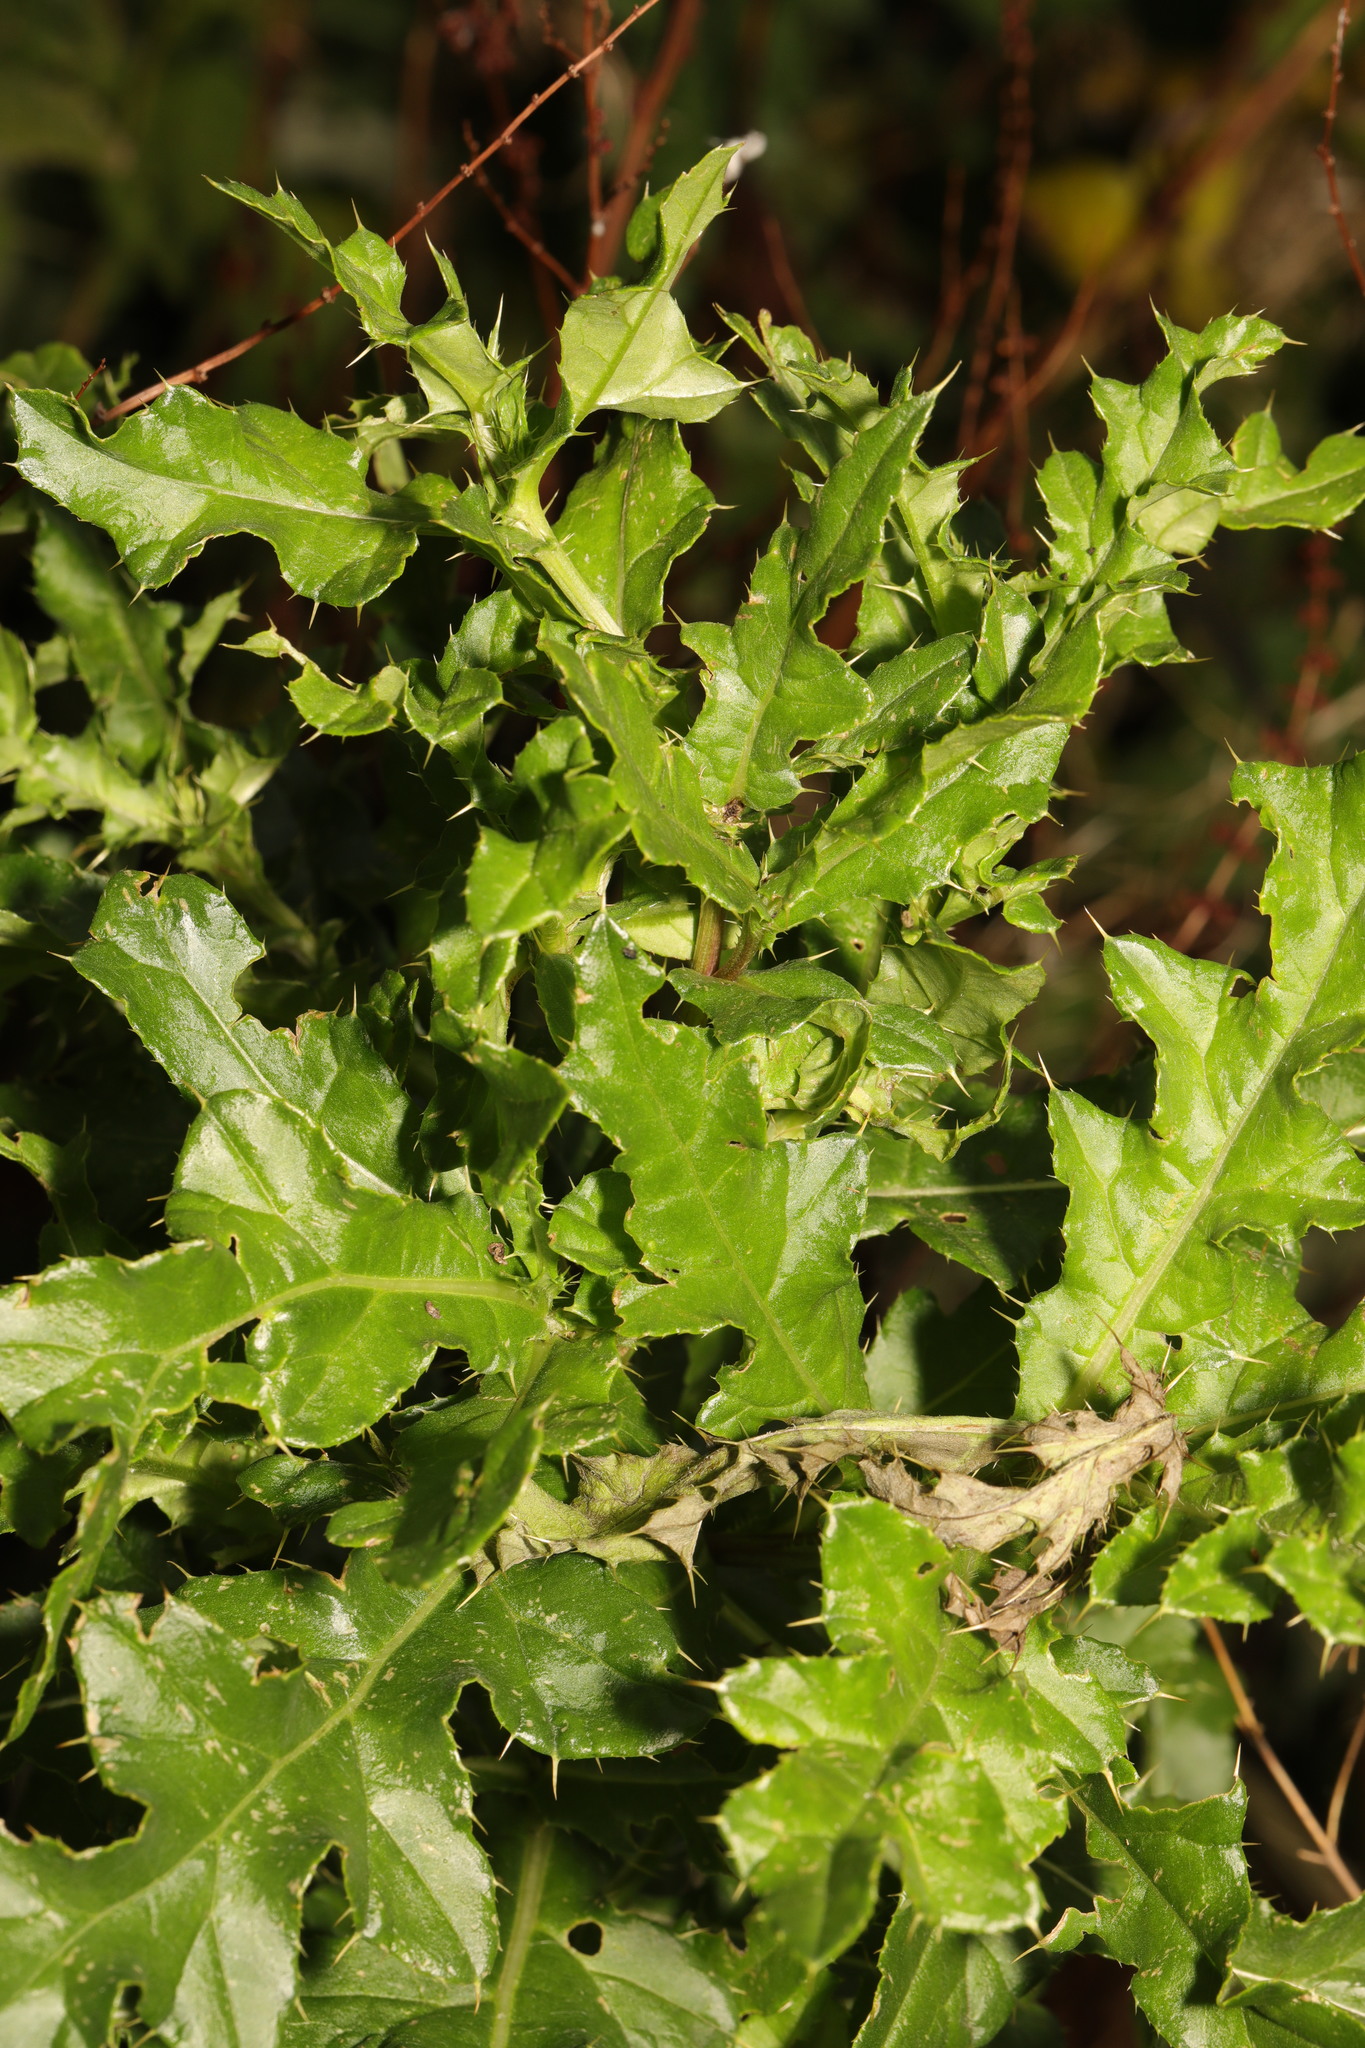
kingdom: Plantae
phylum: Tracheophyta
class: Magnoliopsida
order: Asterales
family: Asteraceae
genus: Cirsium
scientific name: Cirsium arvense
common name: Creeping thistle
